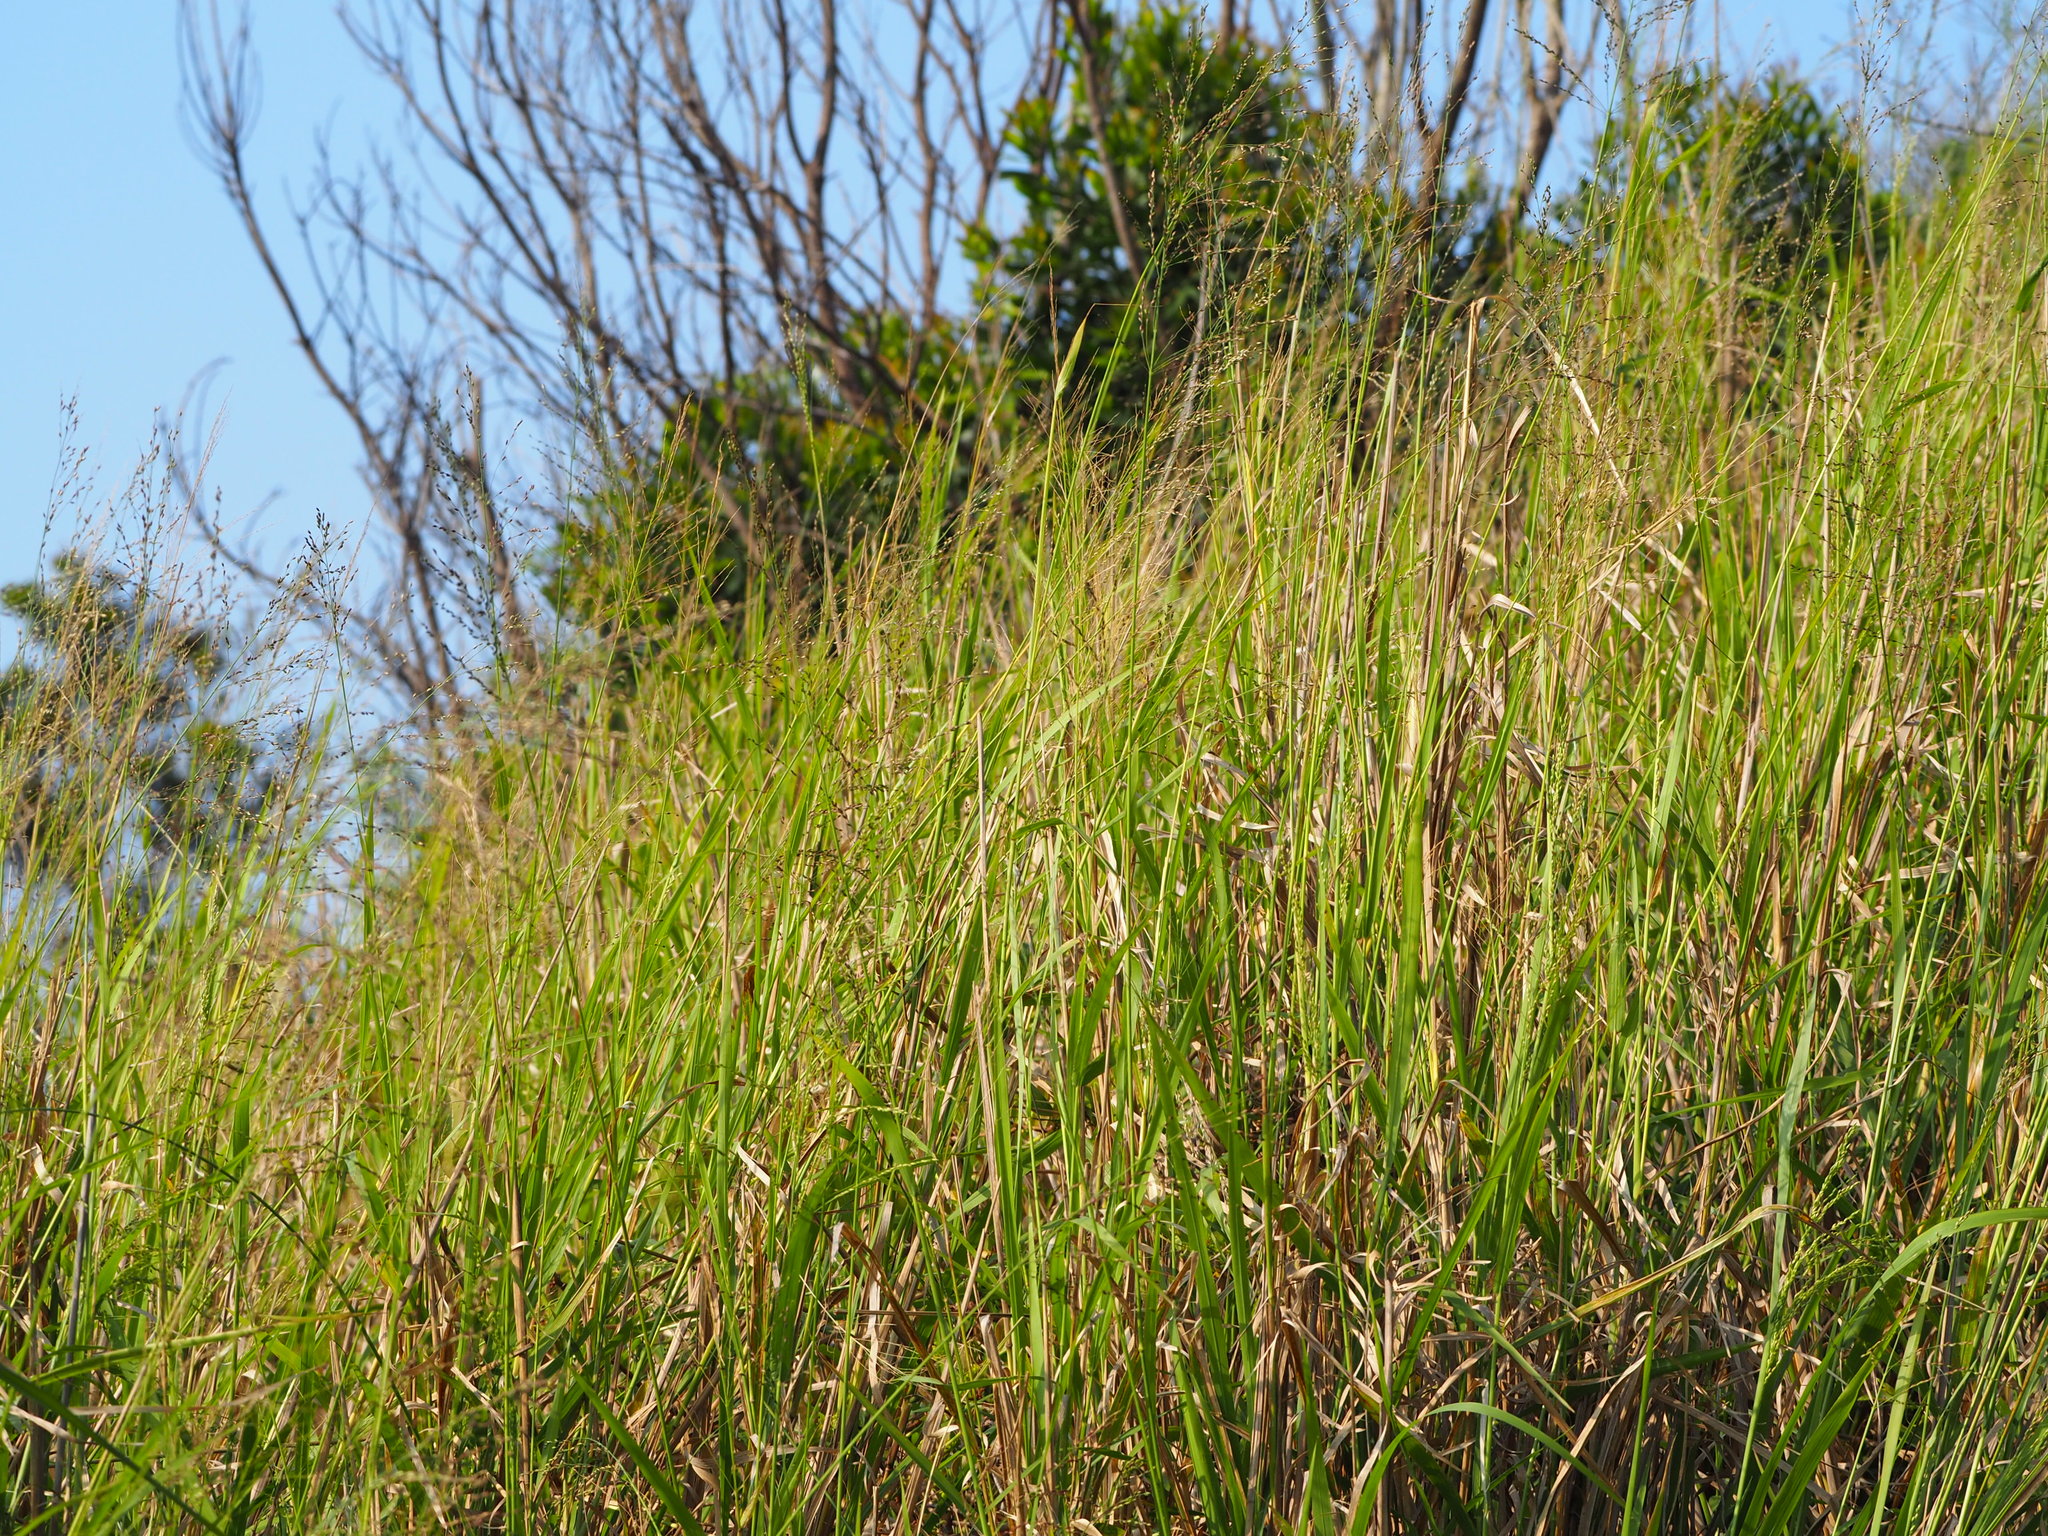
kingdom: Plantae
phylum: Tracheophyta
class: Liliopsida
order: Poales
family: Poaceae
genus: Megathyrsus
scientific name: Megathyrsus maximus
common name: Guineagrass
